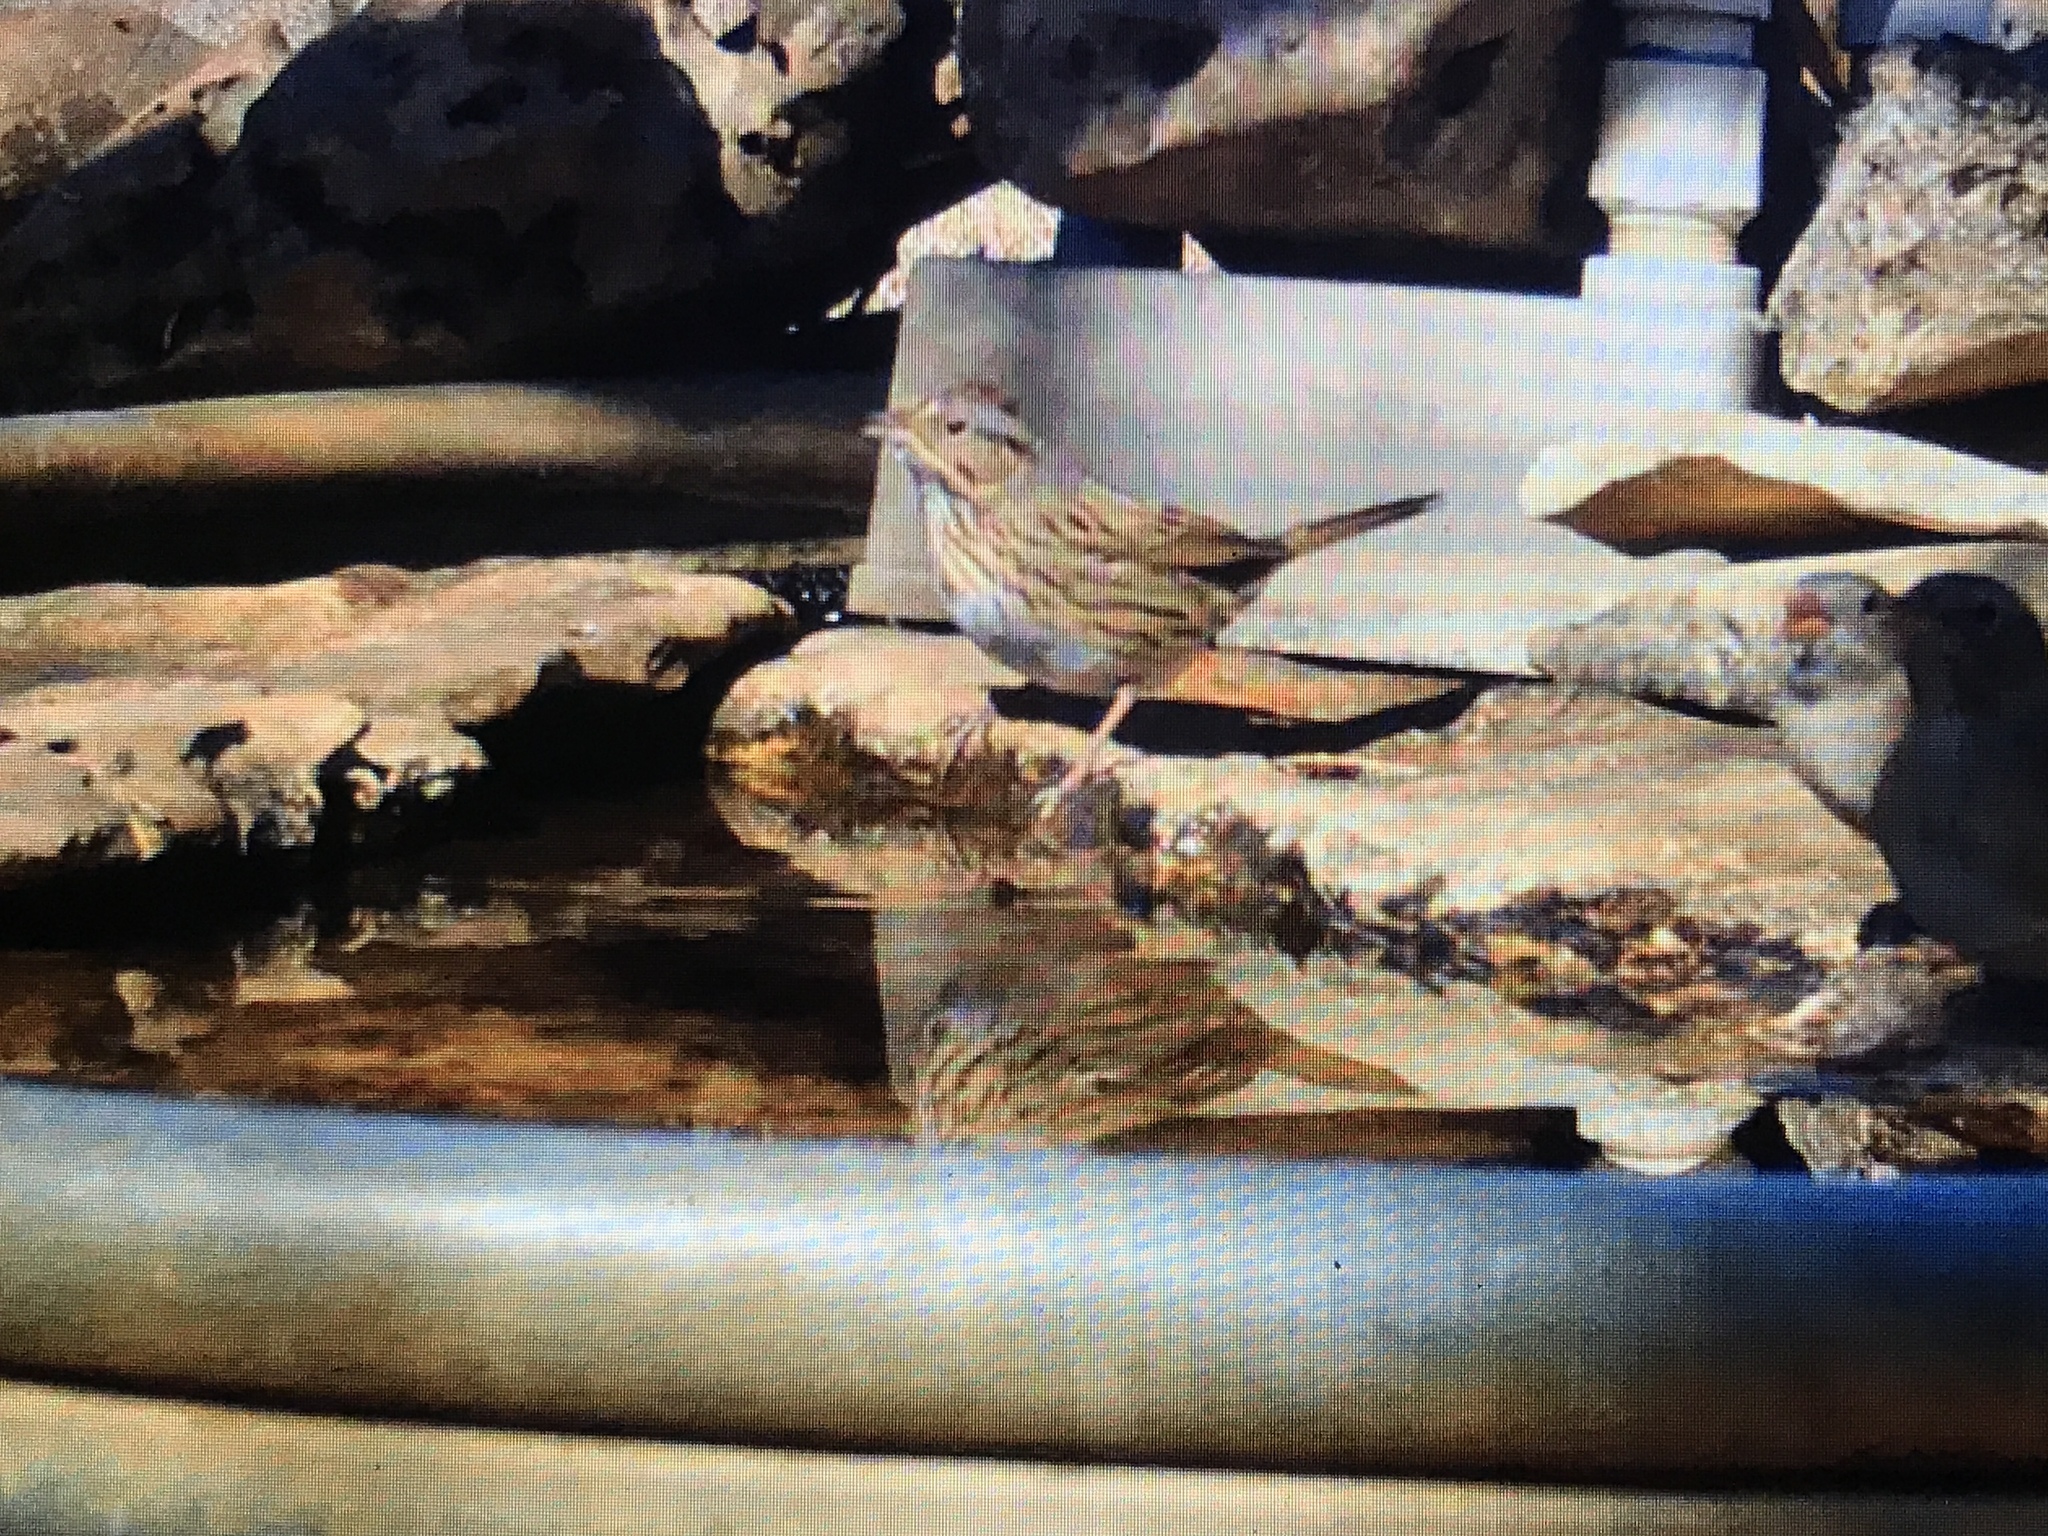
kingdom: Animalia
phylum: Chordata
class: Aves
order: Passeriformes
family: Passerellidae
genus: Melospiza
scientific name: Melospiza lincolnii
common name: Lincoln's sparrow
